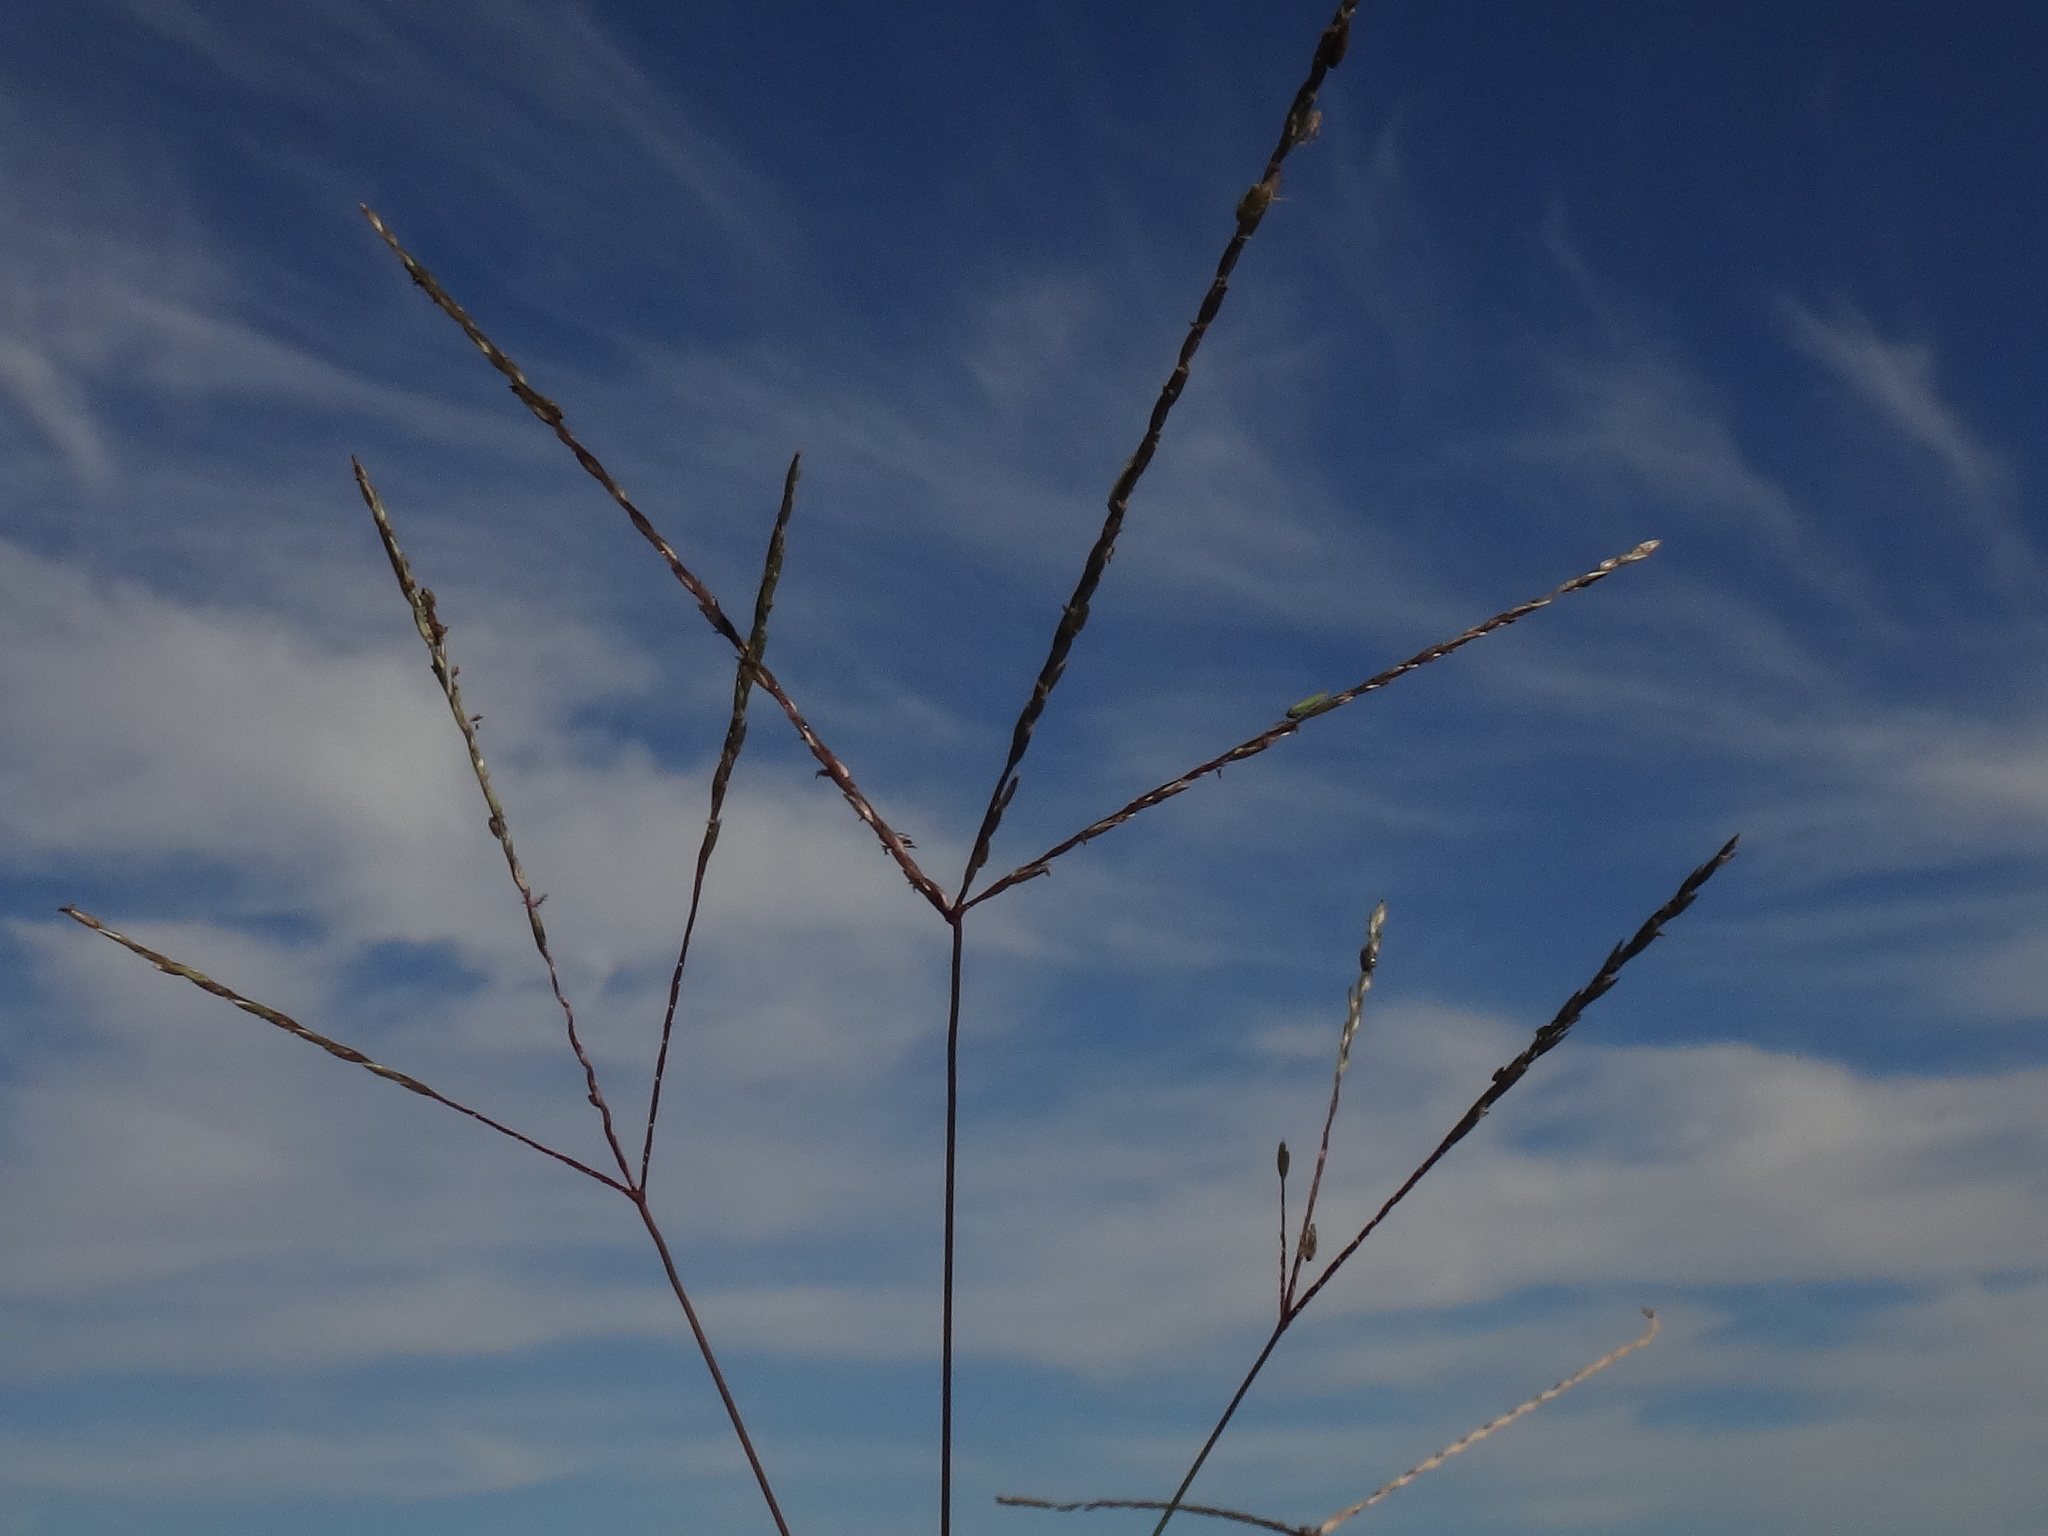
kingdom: Plantae
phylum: Tracheophyta
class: Liliopsida
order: Poales
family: Poaceae
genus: Cynodon
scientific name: Cynodon dactylon
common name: Bermuda grass
